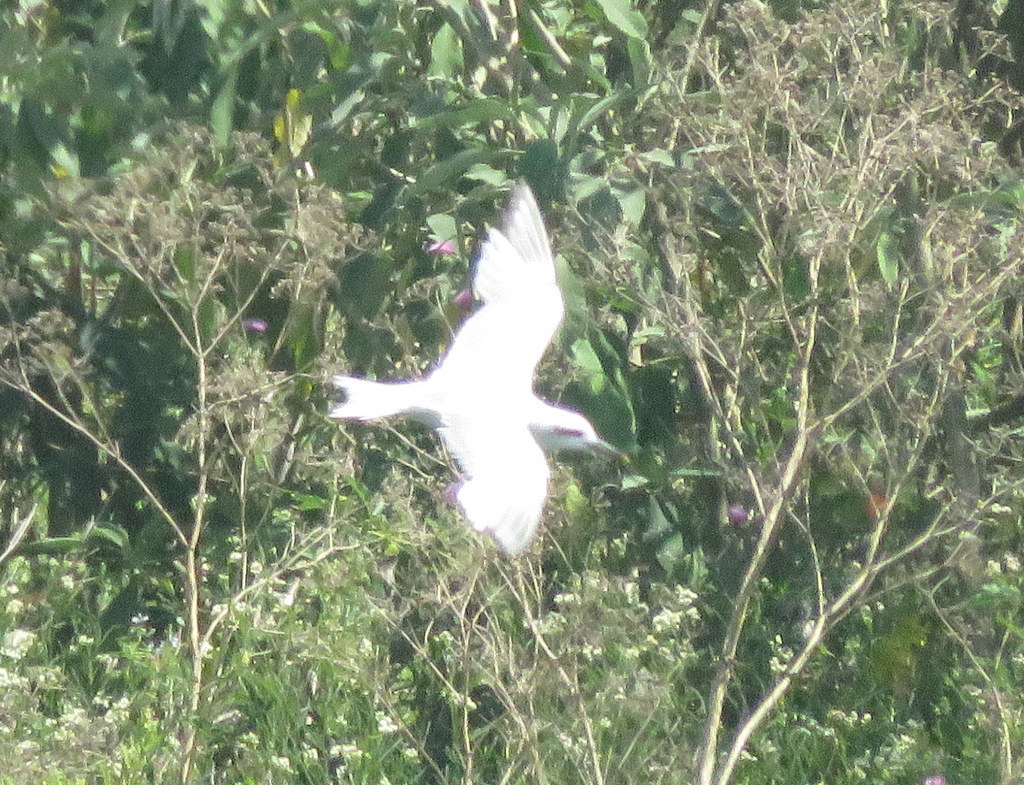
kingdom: Animalia
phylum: Chordata
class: Aves
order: Charadriiformes
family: Laridae
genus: Sterna
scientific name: Sterna trudeaui
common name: Snowy-crowned tern
